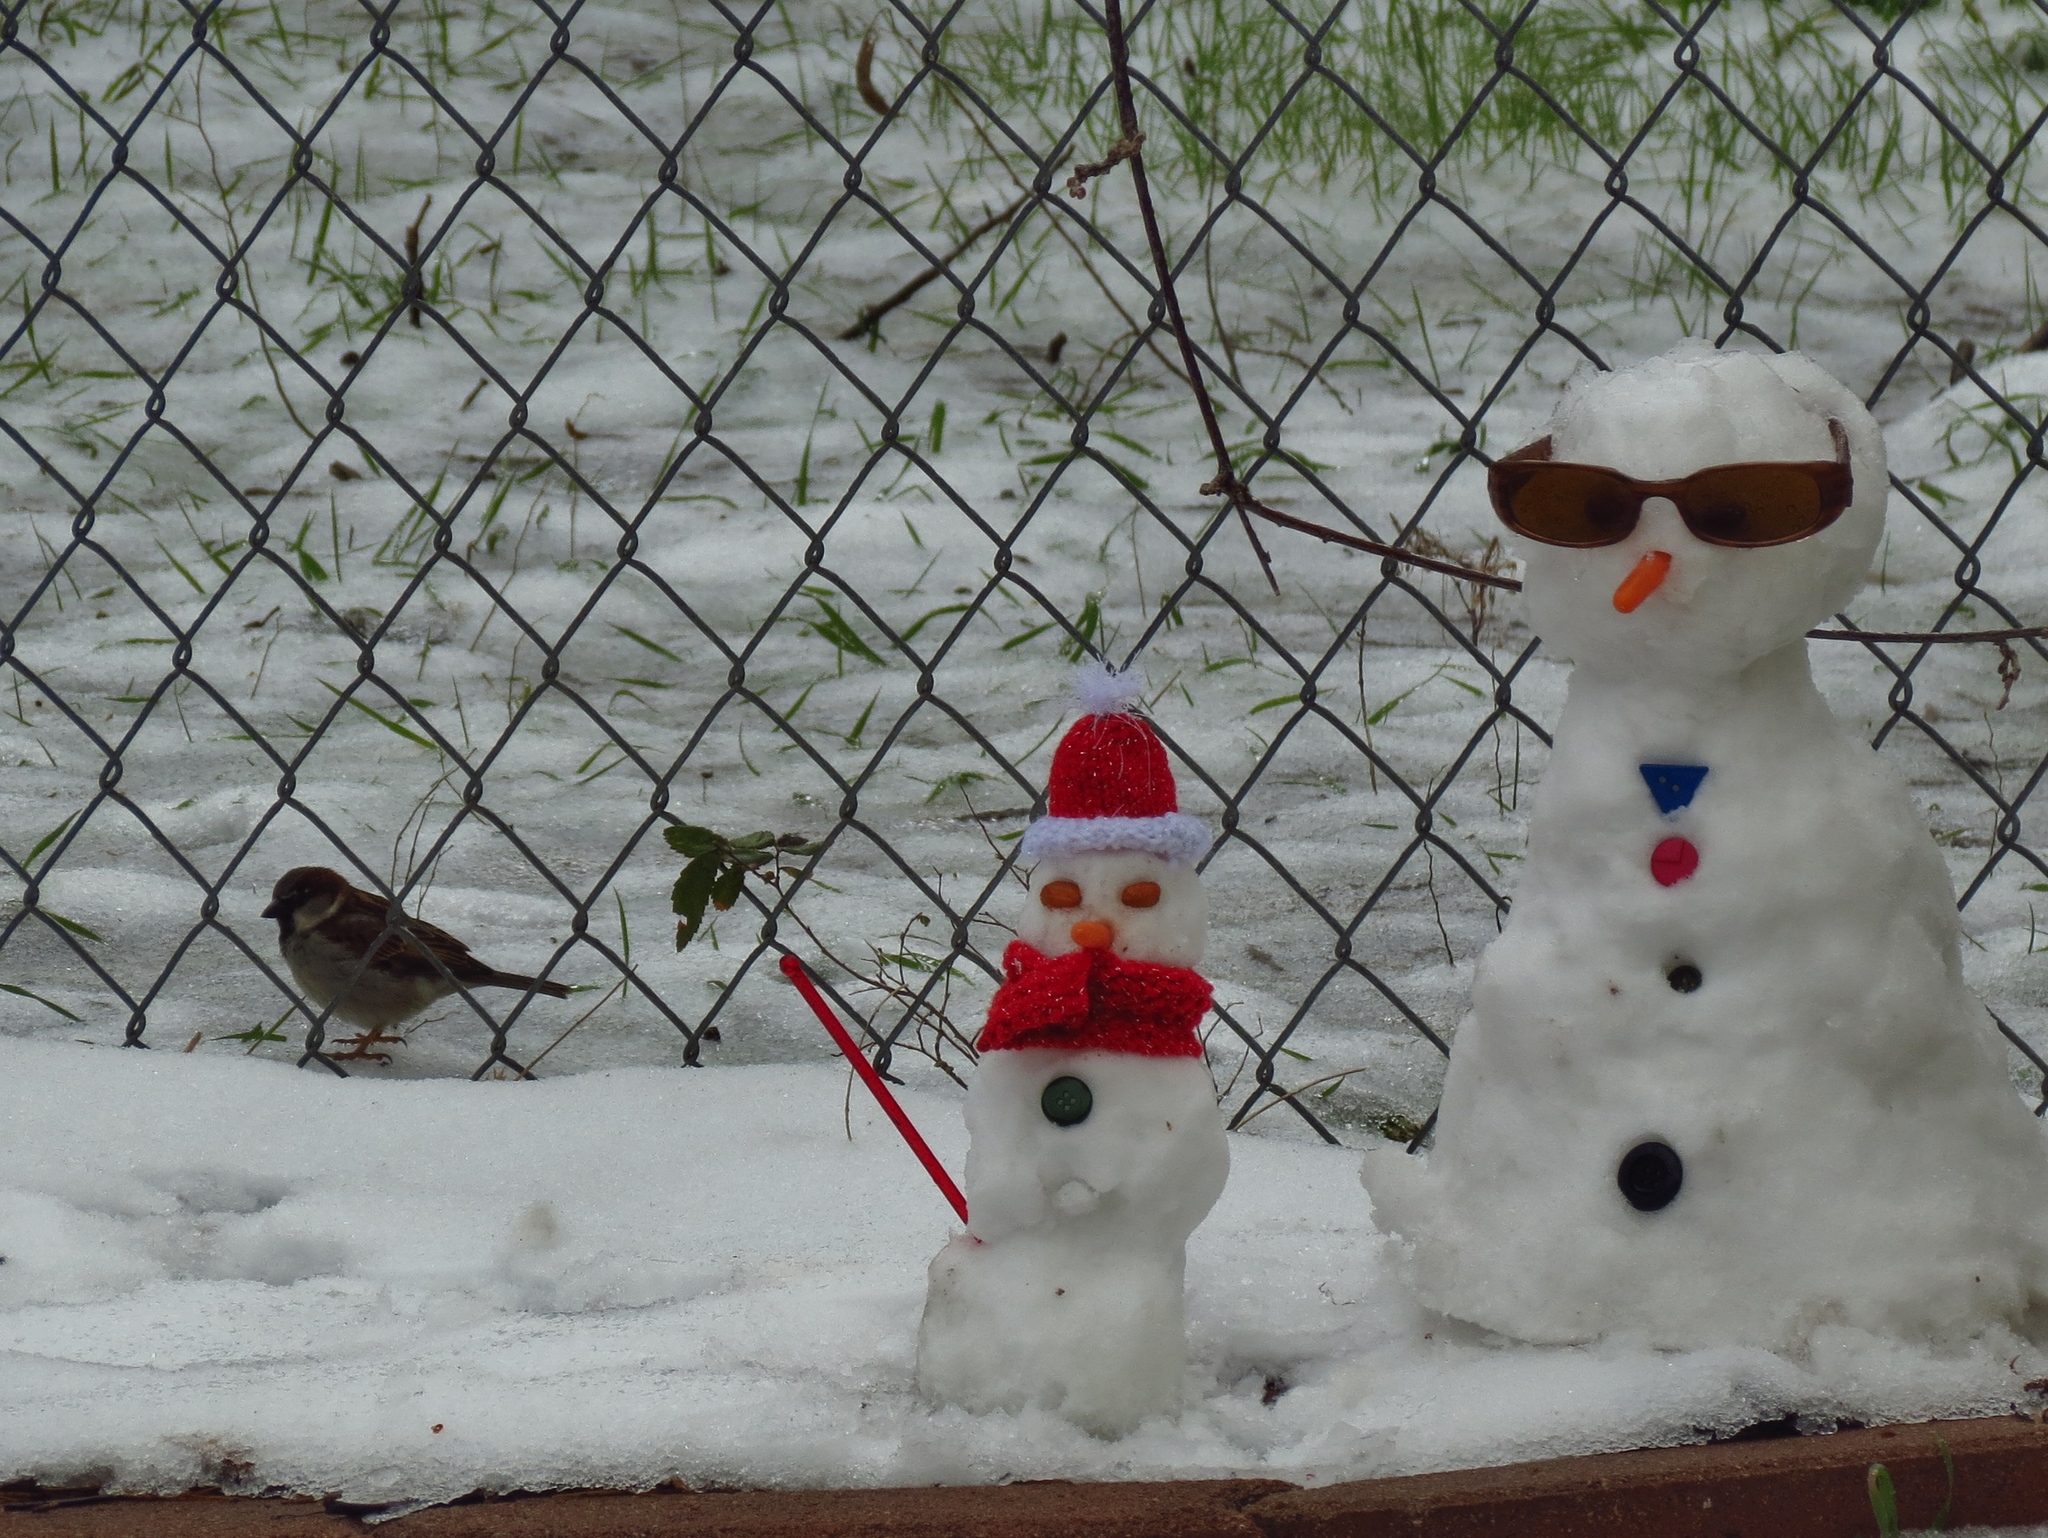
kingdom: Animalia
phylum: Chordata
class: Aves
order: Passeriformes
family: Passeridae
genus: Passer
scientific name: Passer domesticus
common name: House sparrow
